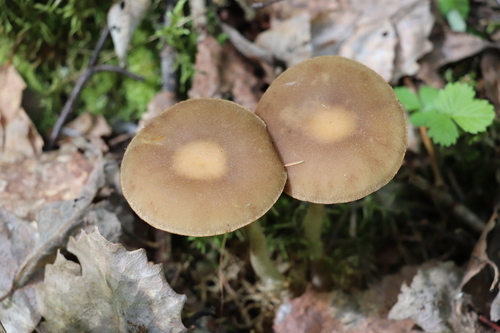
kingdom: Fungi
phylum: Basidiomycota
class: Agaricomycetes
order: Agaricales
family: Strophariaceae
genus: Agrocybe
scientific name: Agrocybe praecox
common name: Spring fieldcap
